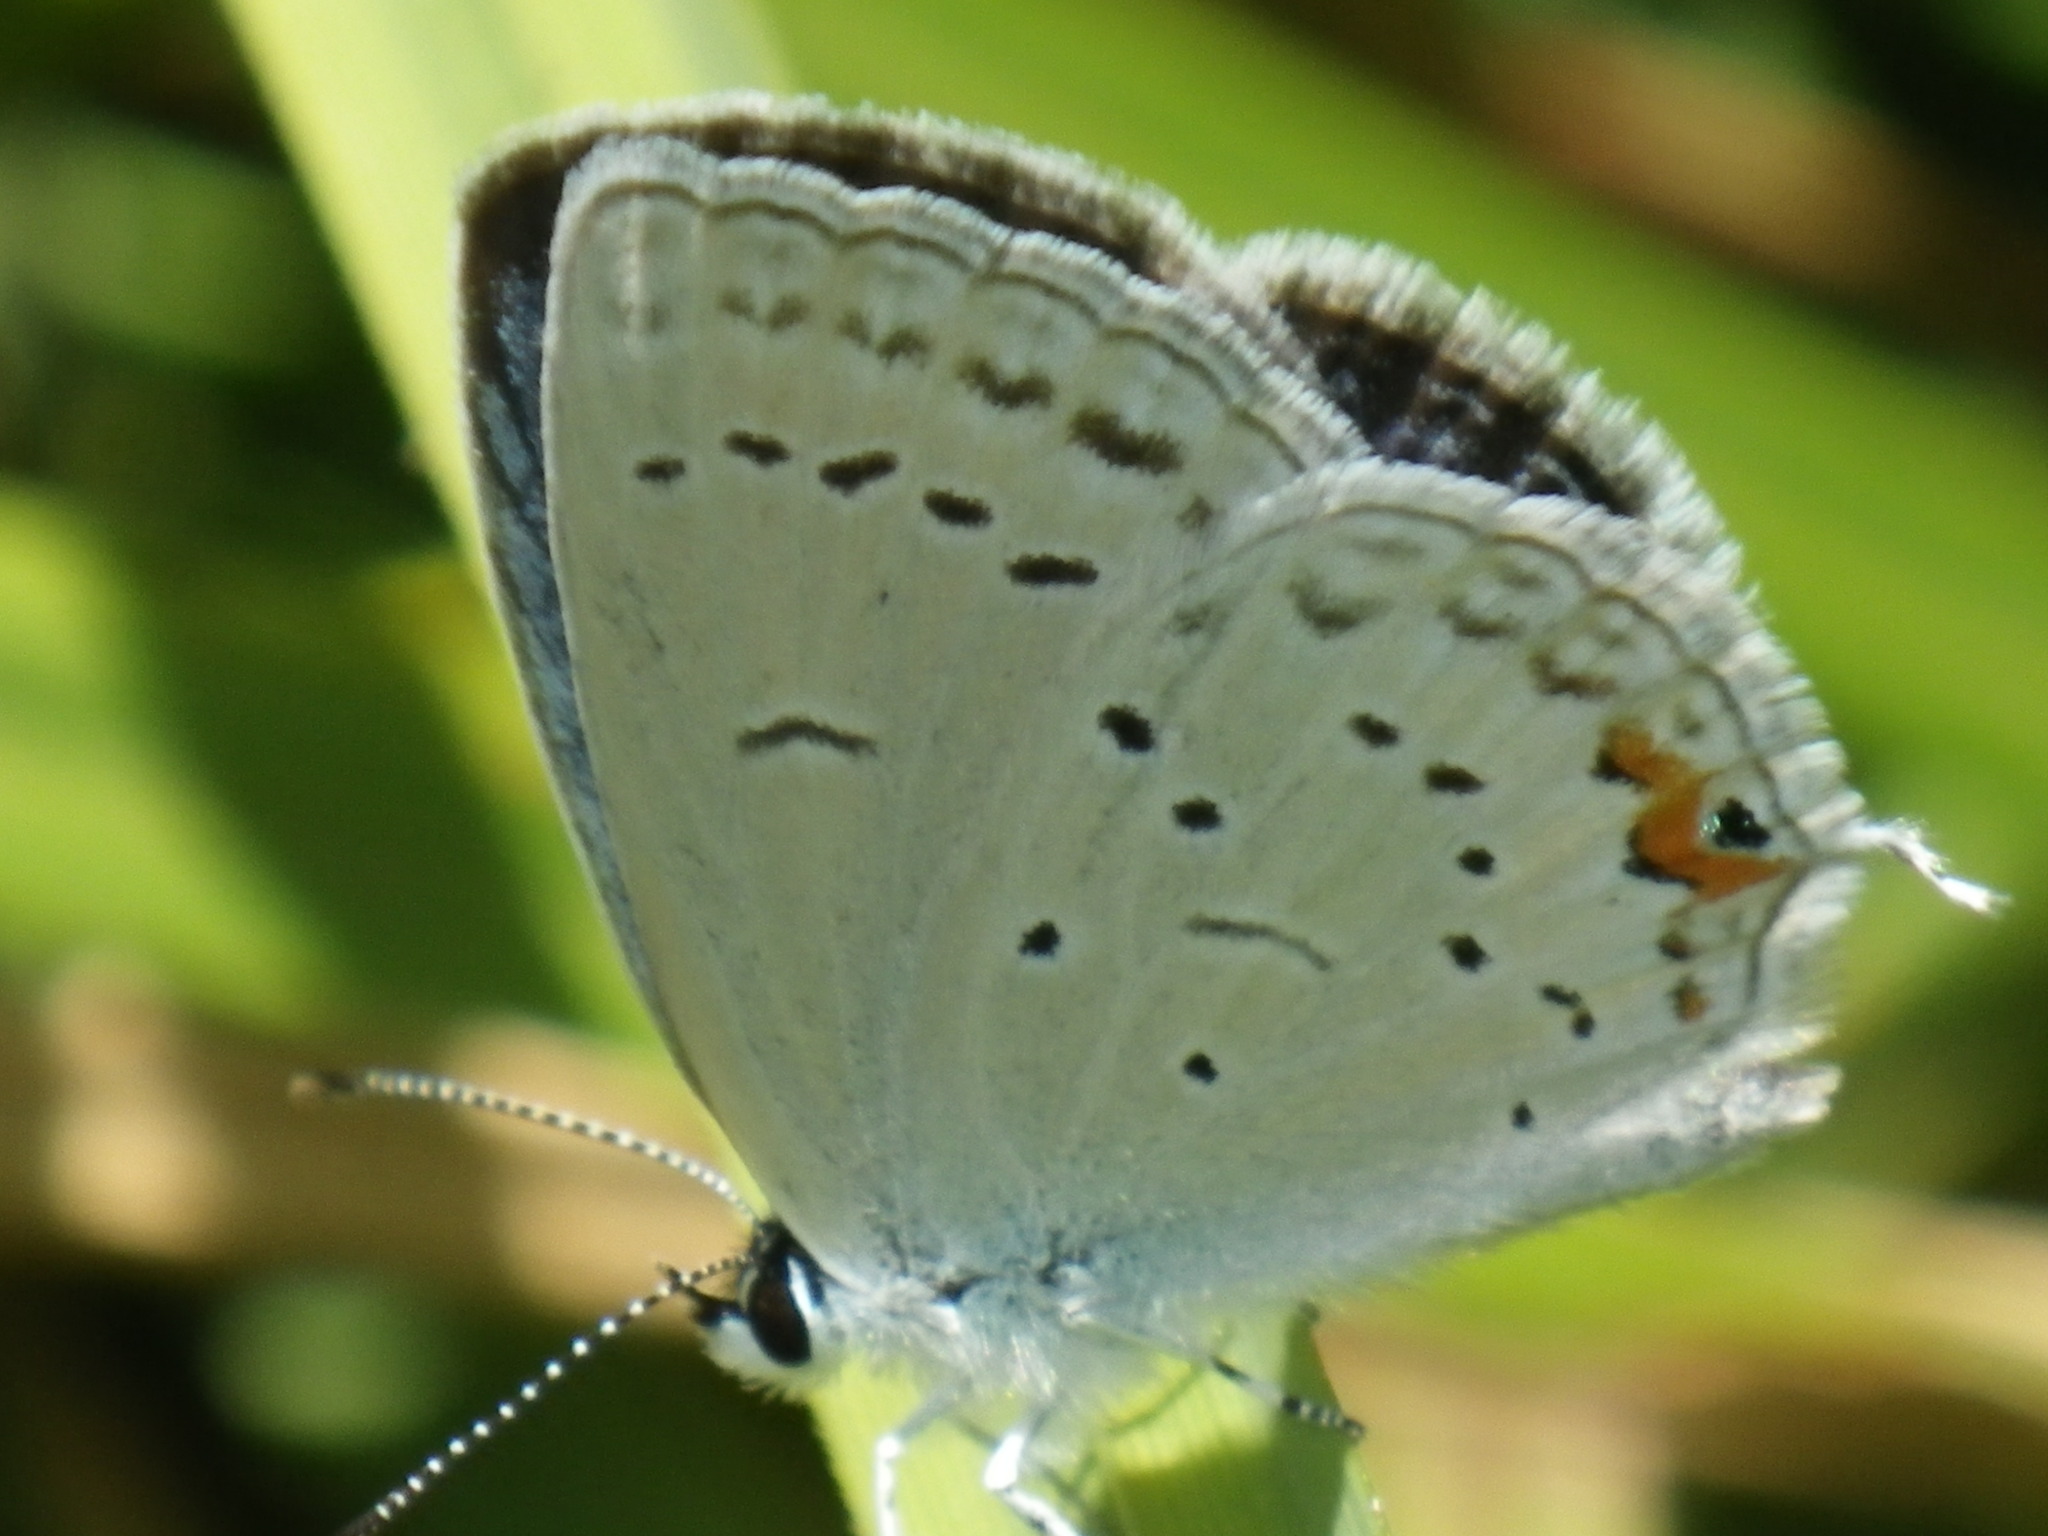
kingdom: Animalia
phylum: Arthropoda
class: Insecta
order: Lepidoptera
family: Lycaenidae
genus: Elkalyce
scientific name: Elkalyce comyntas
